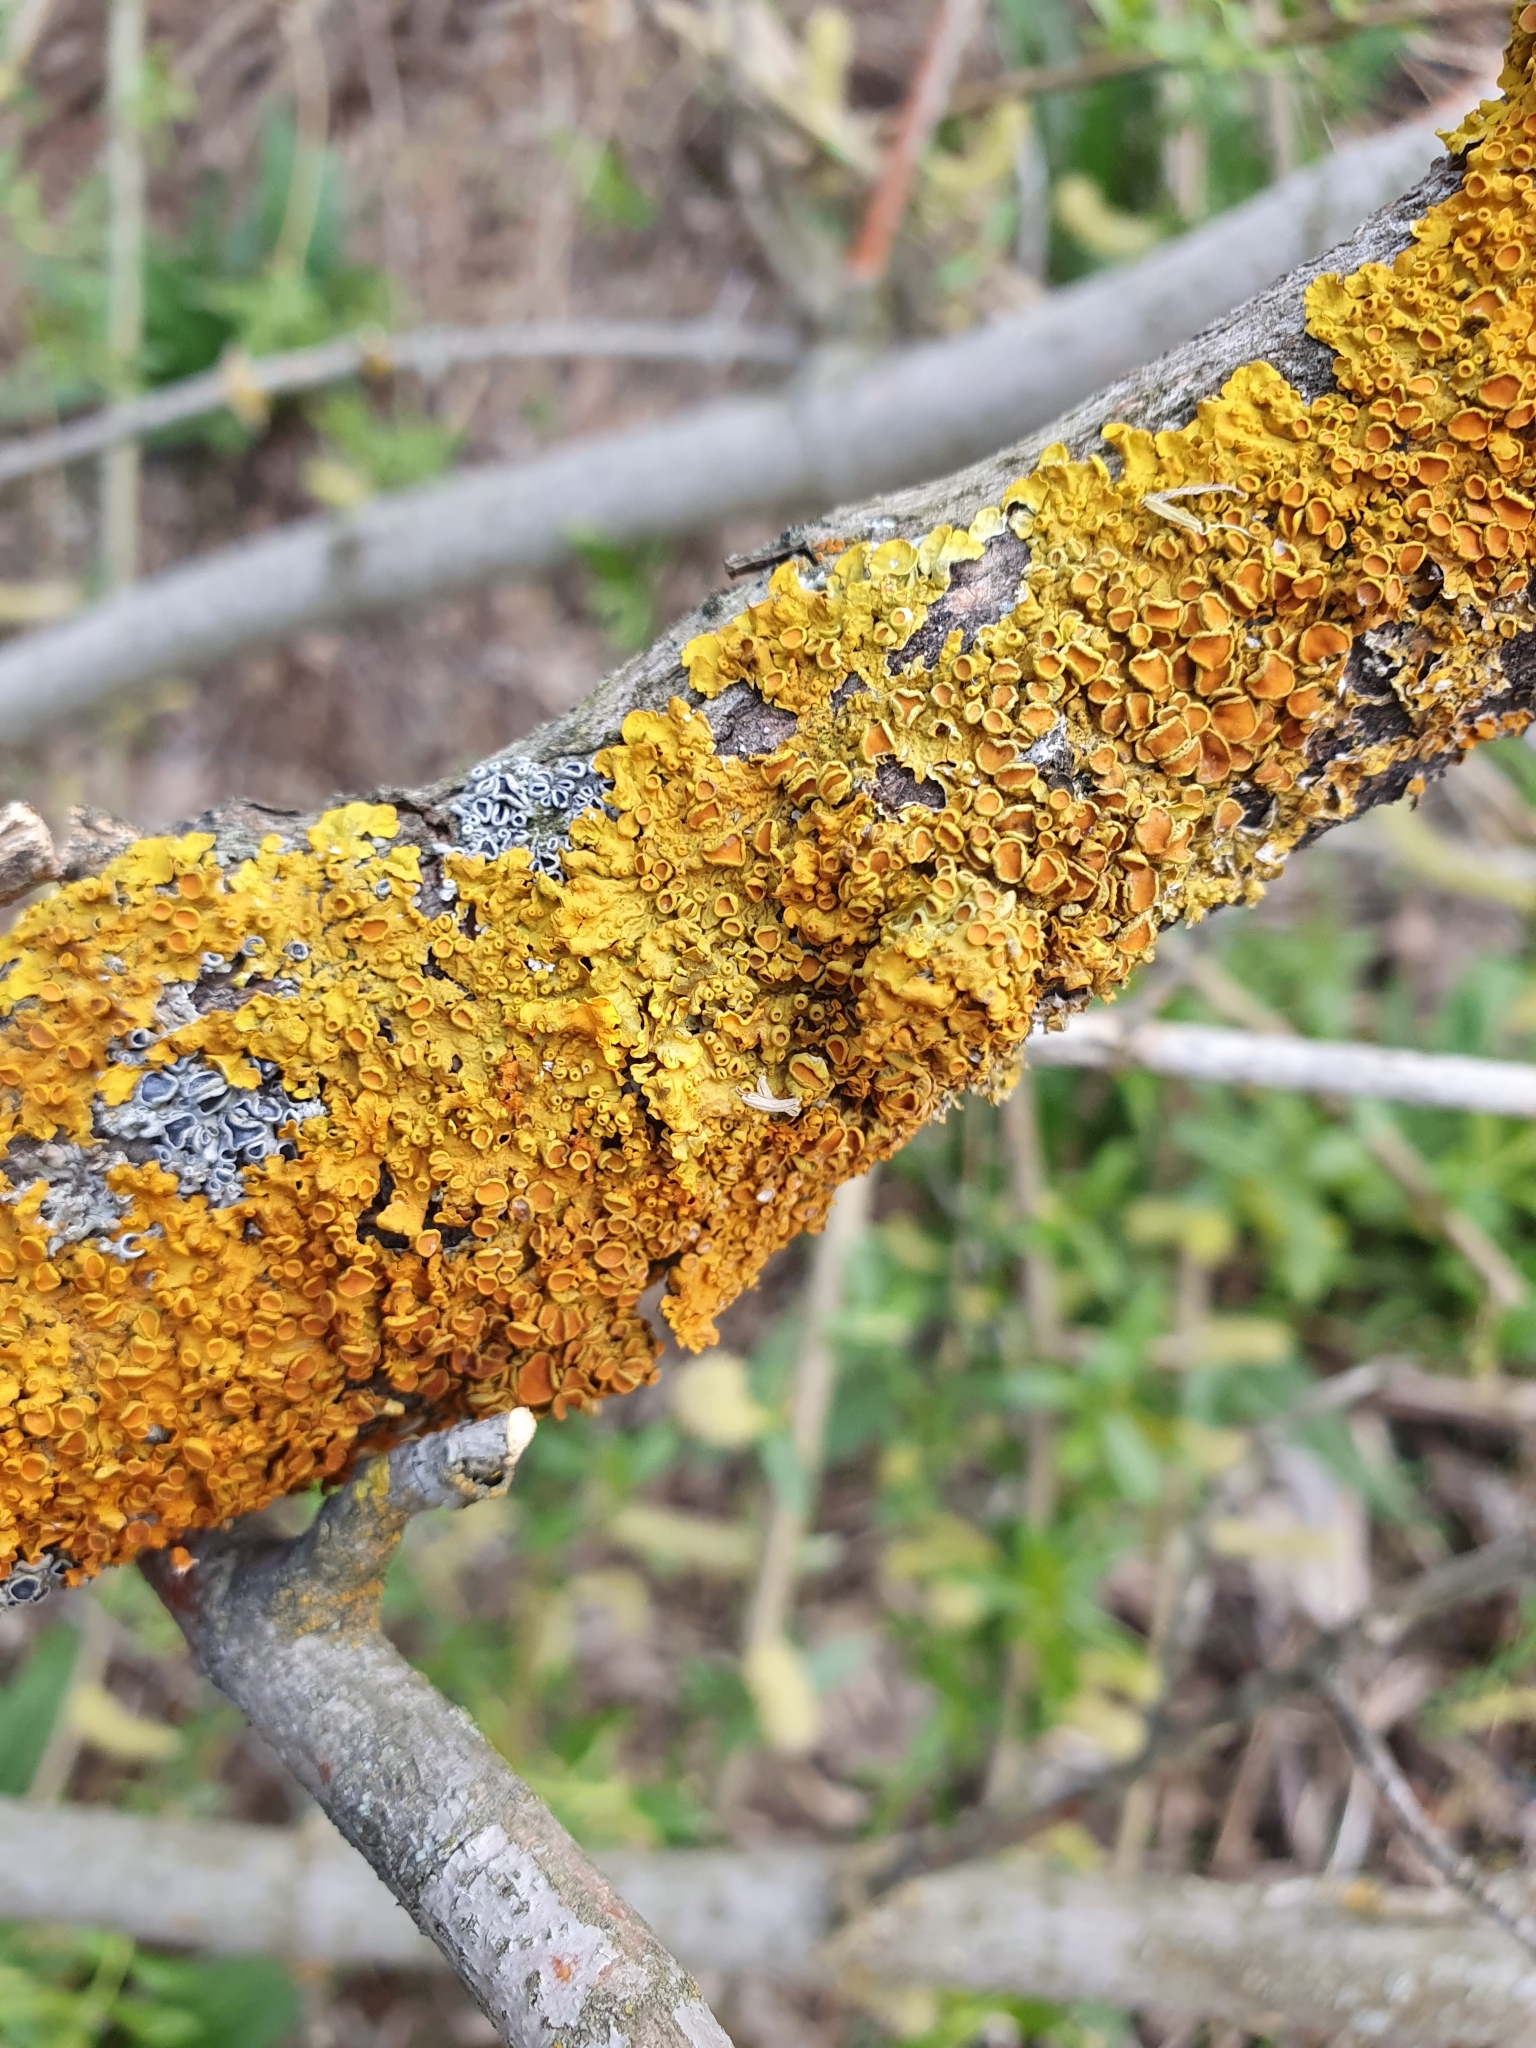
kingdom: Fungi
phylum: Ascomycota
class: Lecanoromycetes
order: Teloschistales
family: Teloschistaceae
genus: Xanthoria
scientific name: Xanthoria parietina
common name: Common orange lichen
